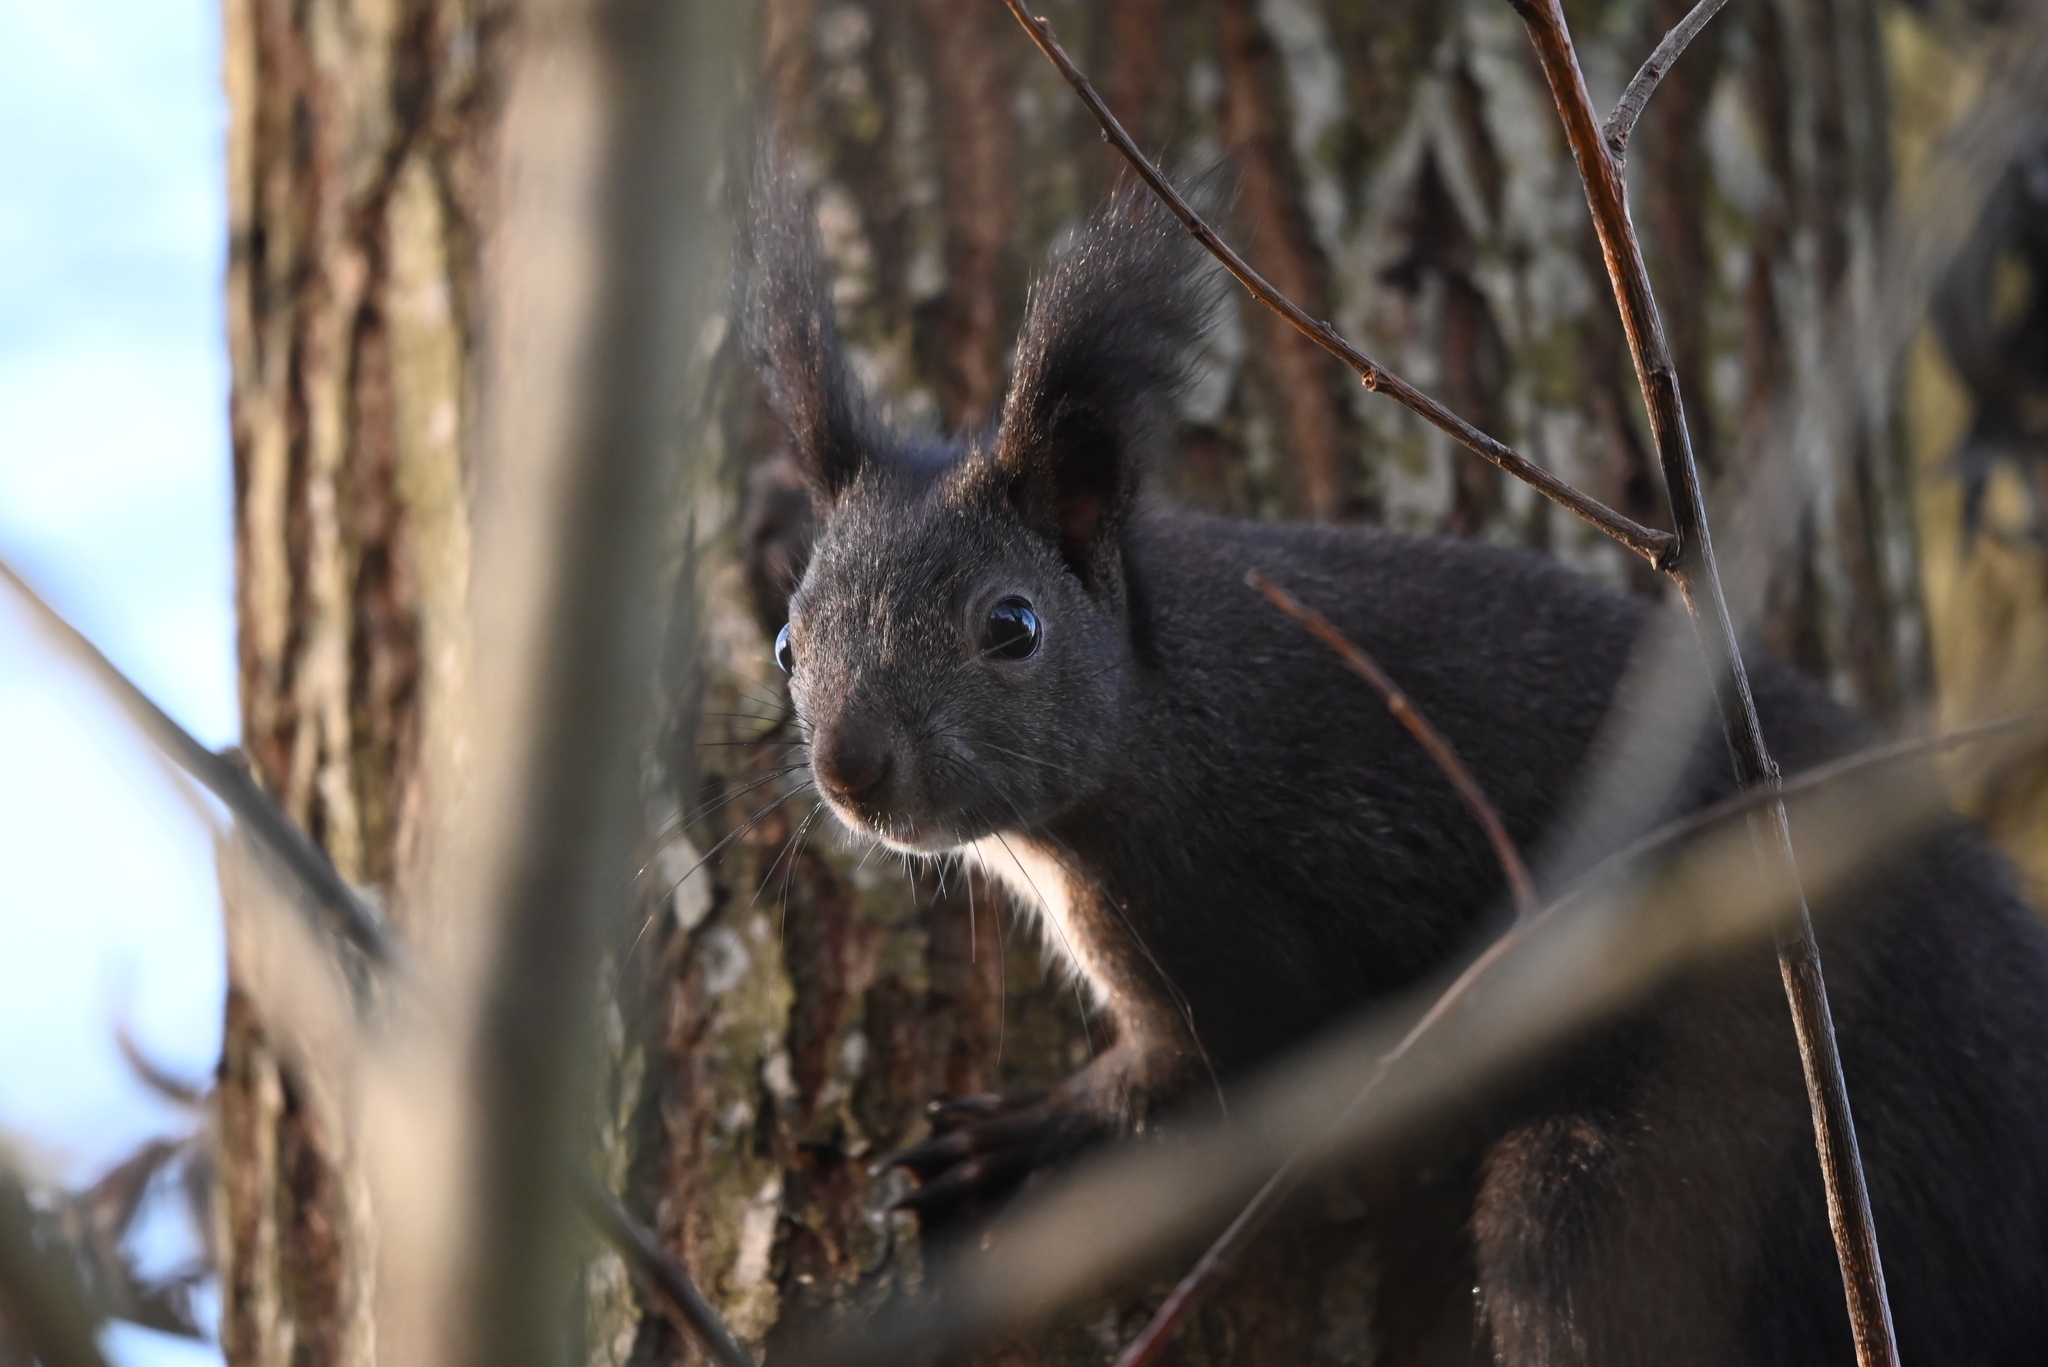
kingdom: Animalia
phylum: Chordata
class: Mammalia
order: Rodentia
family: Sciuridae
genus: Sciurus
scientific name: Sciurus vulgaris
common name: Eurasian red squirrel
